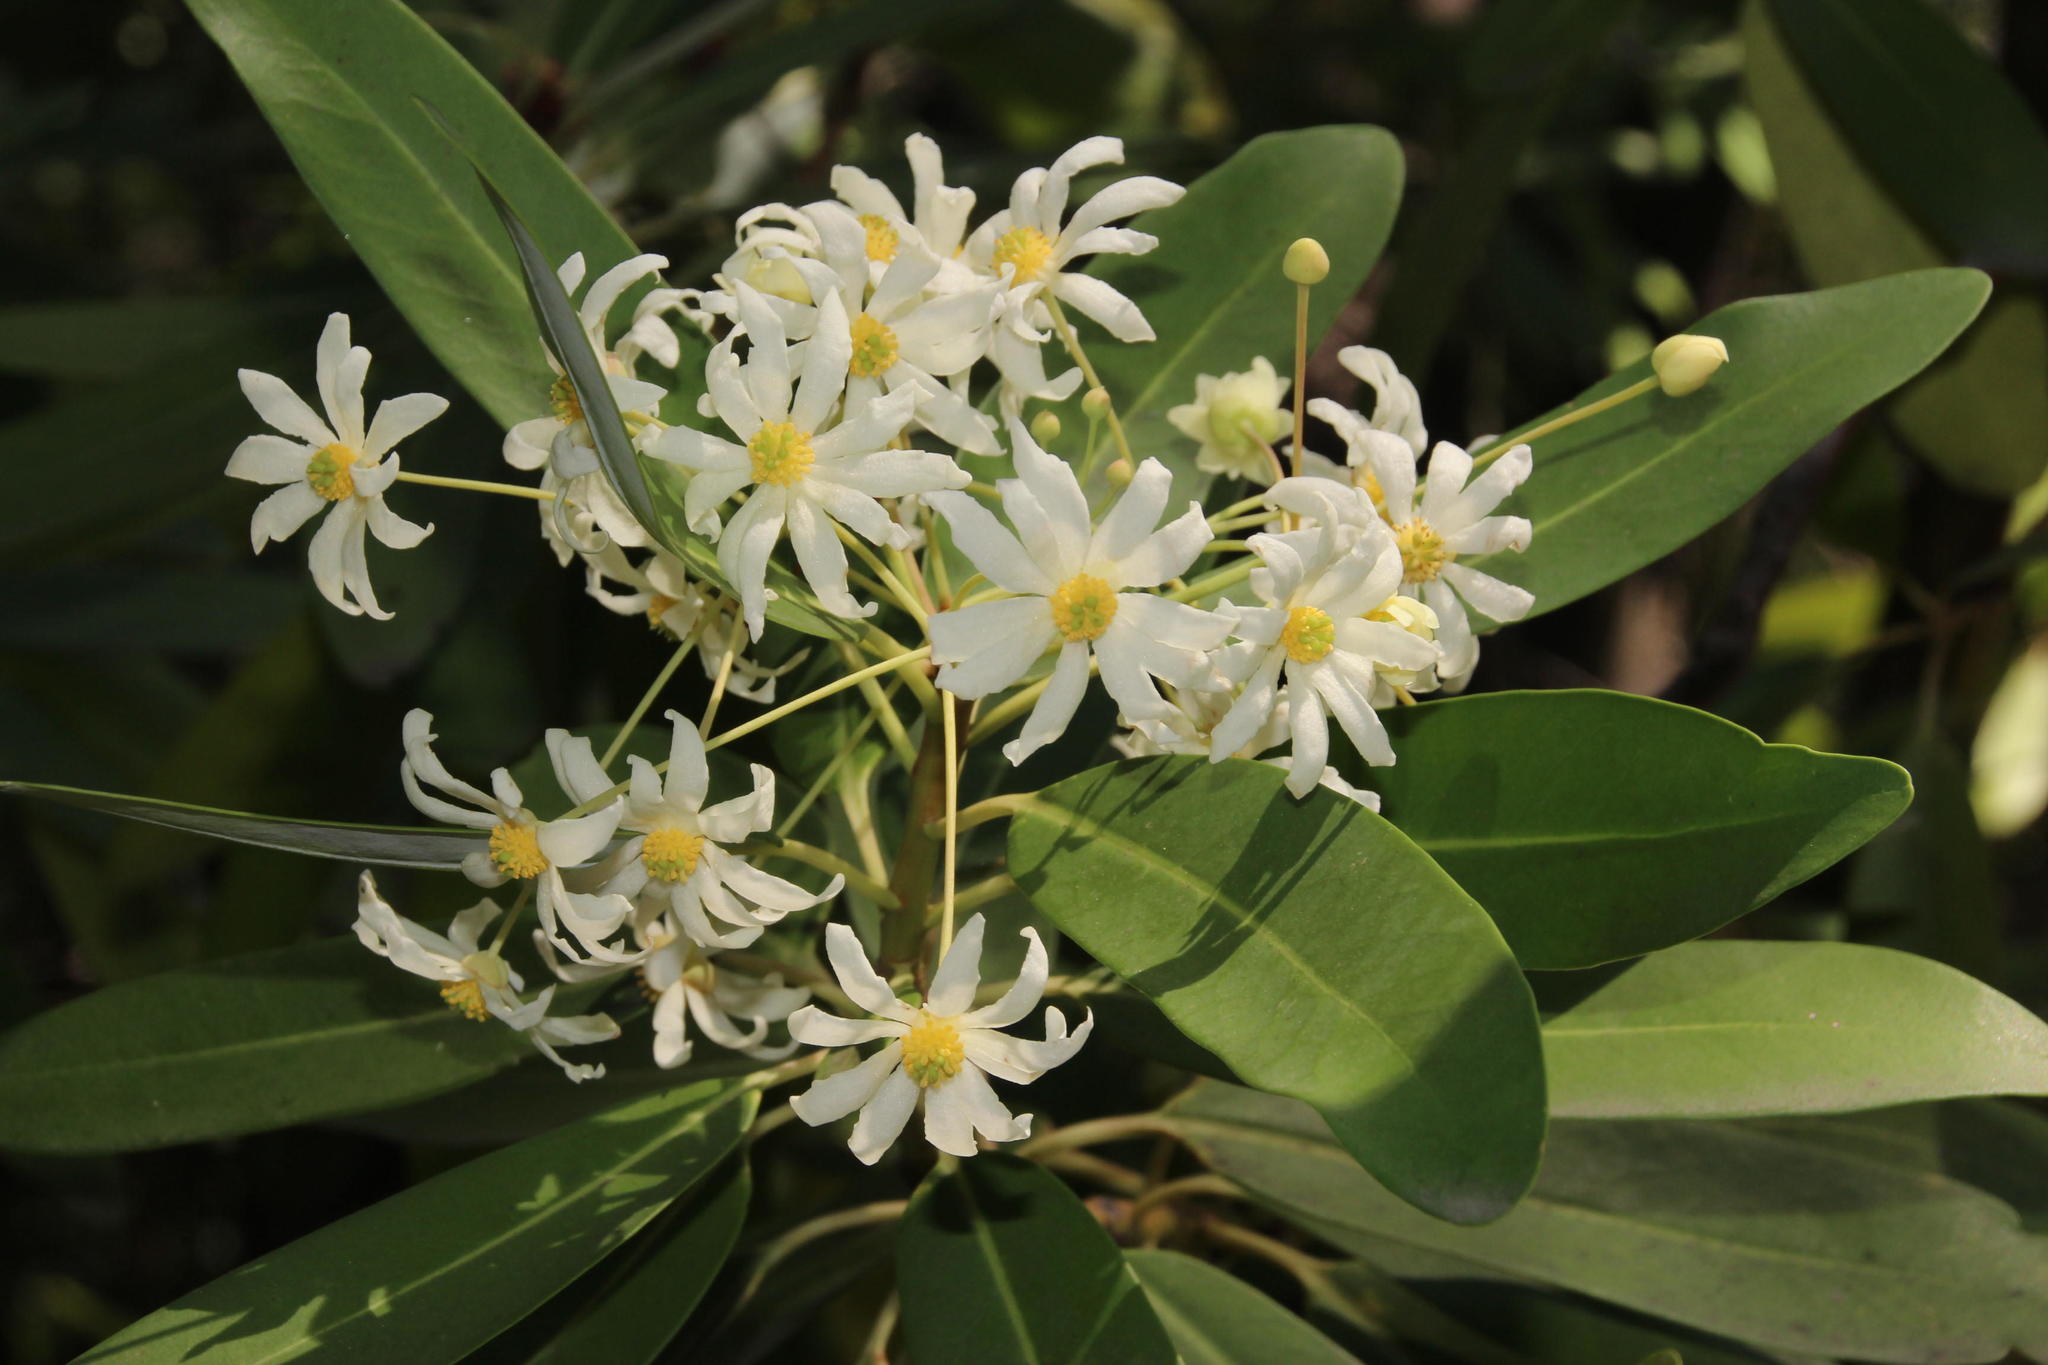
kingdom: Plantae
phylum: Tracheophyta
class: Magnoliopsida
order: Canellales
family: Winteraceae
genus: Drimys
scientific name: Drimys winteri
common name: Winter's-bark
